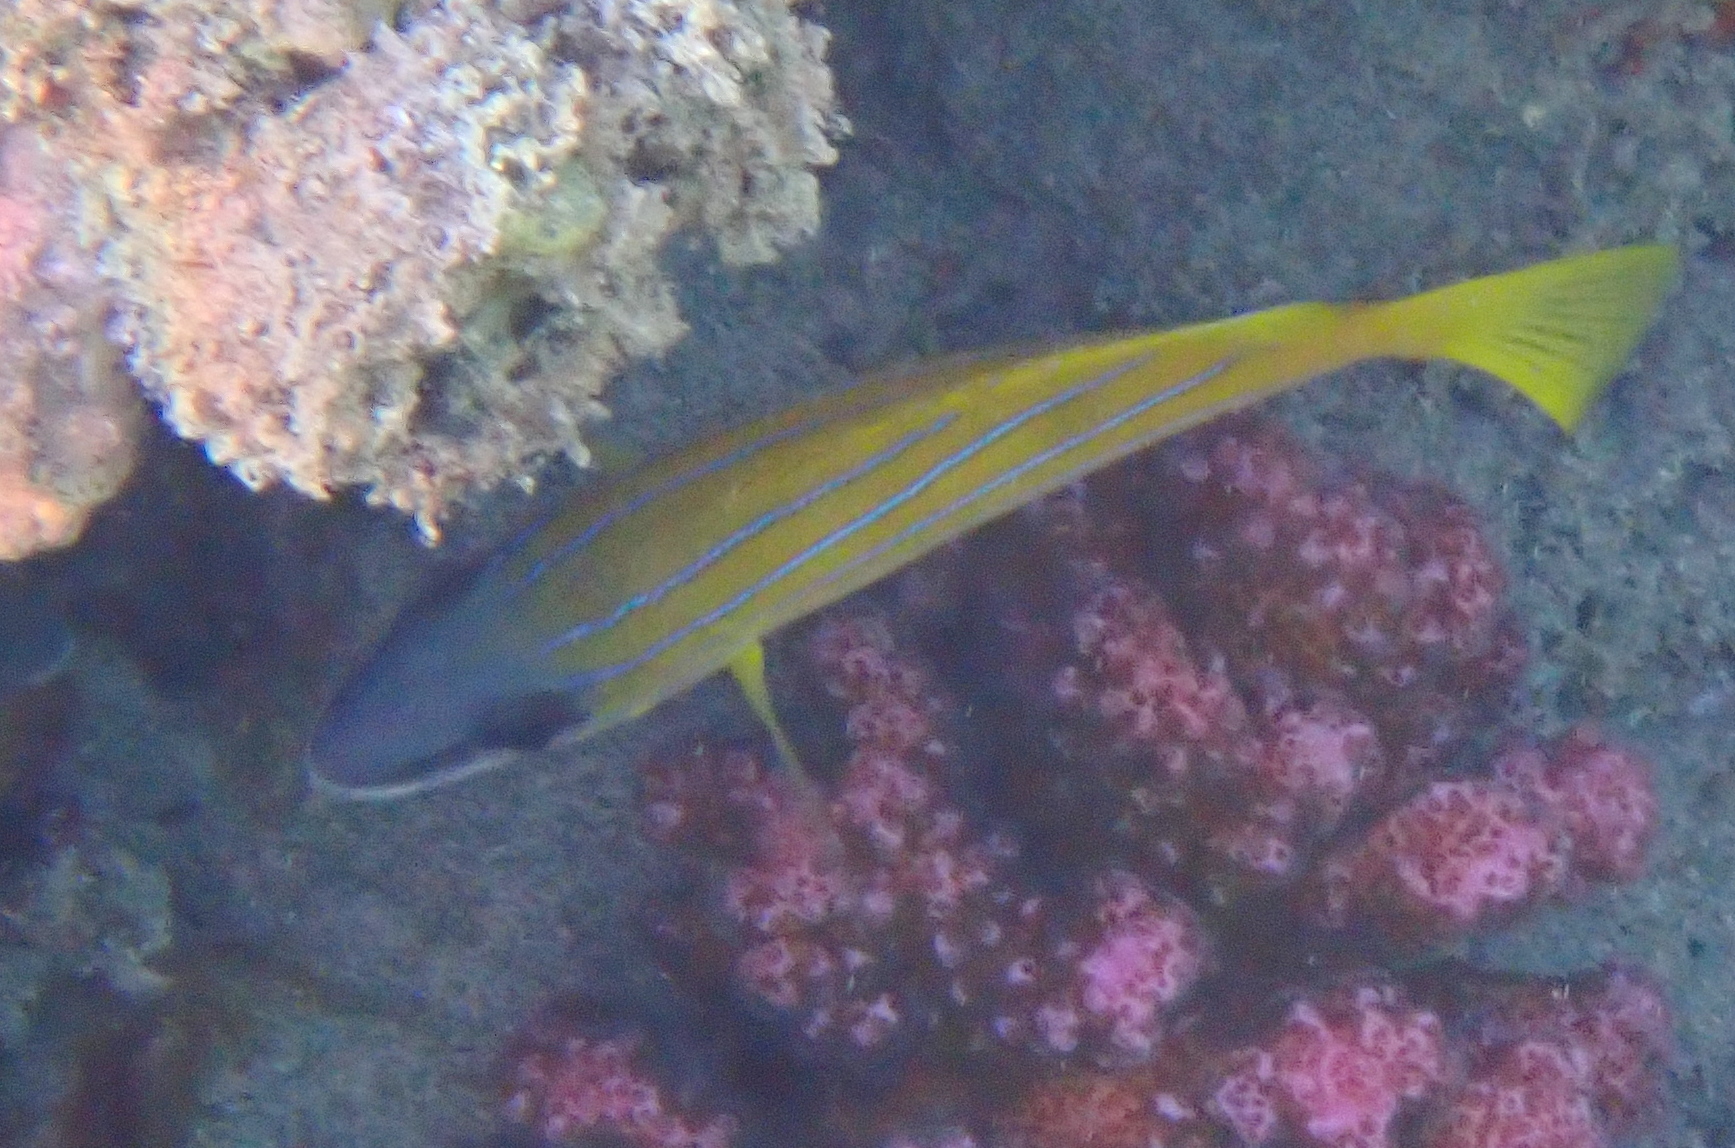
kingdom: Animalia
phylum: Chordata
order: Perciformes
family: Lutjanidae
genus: Lutjanus
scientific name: Lutjanus kasmira
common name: Common bluestripe snapper
